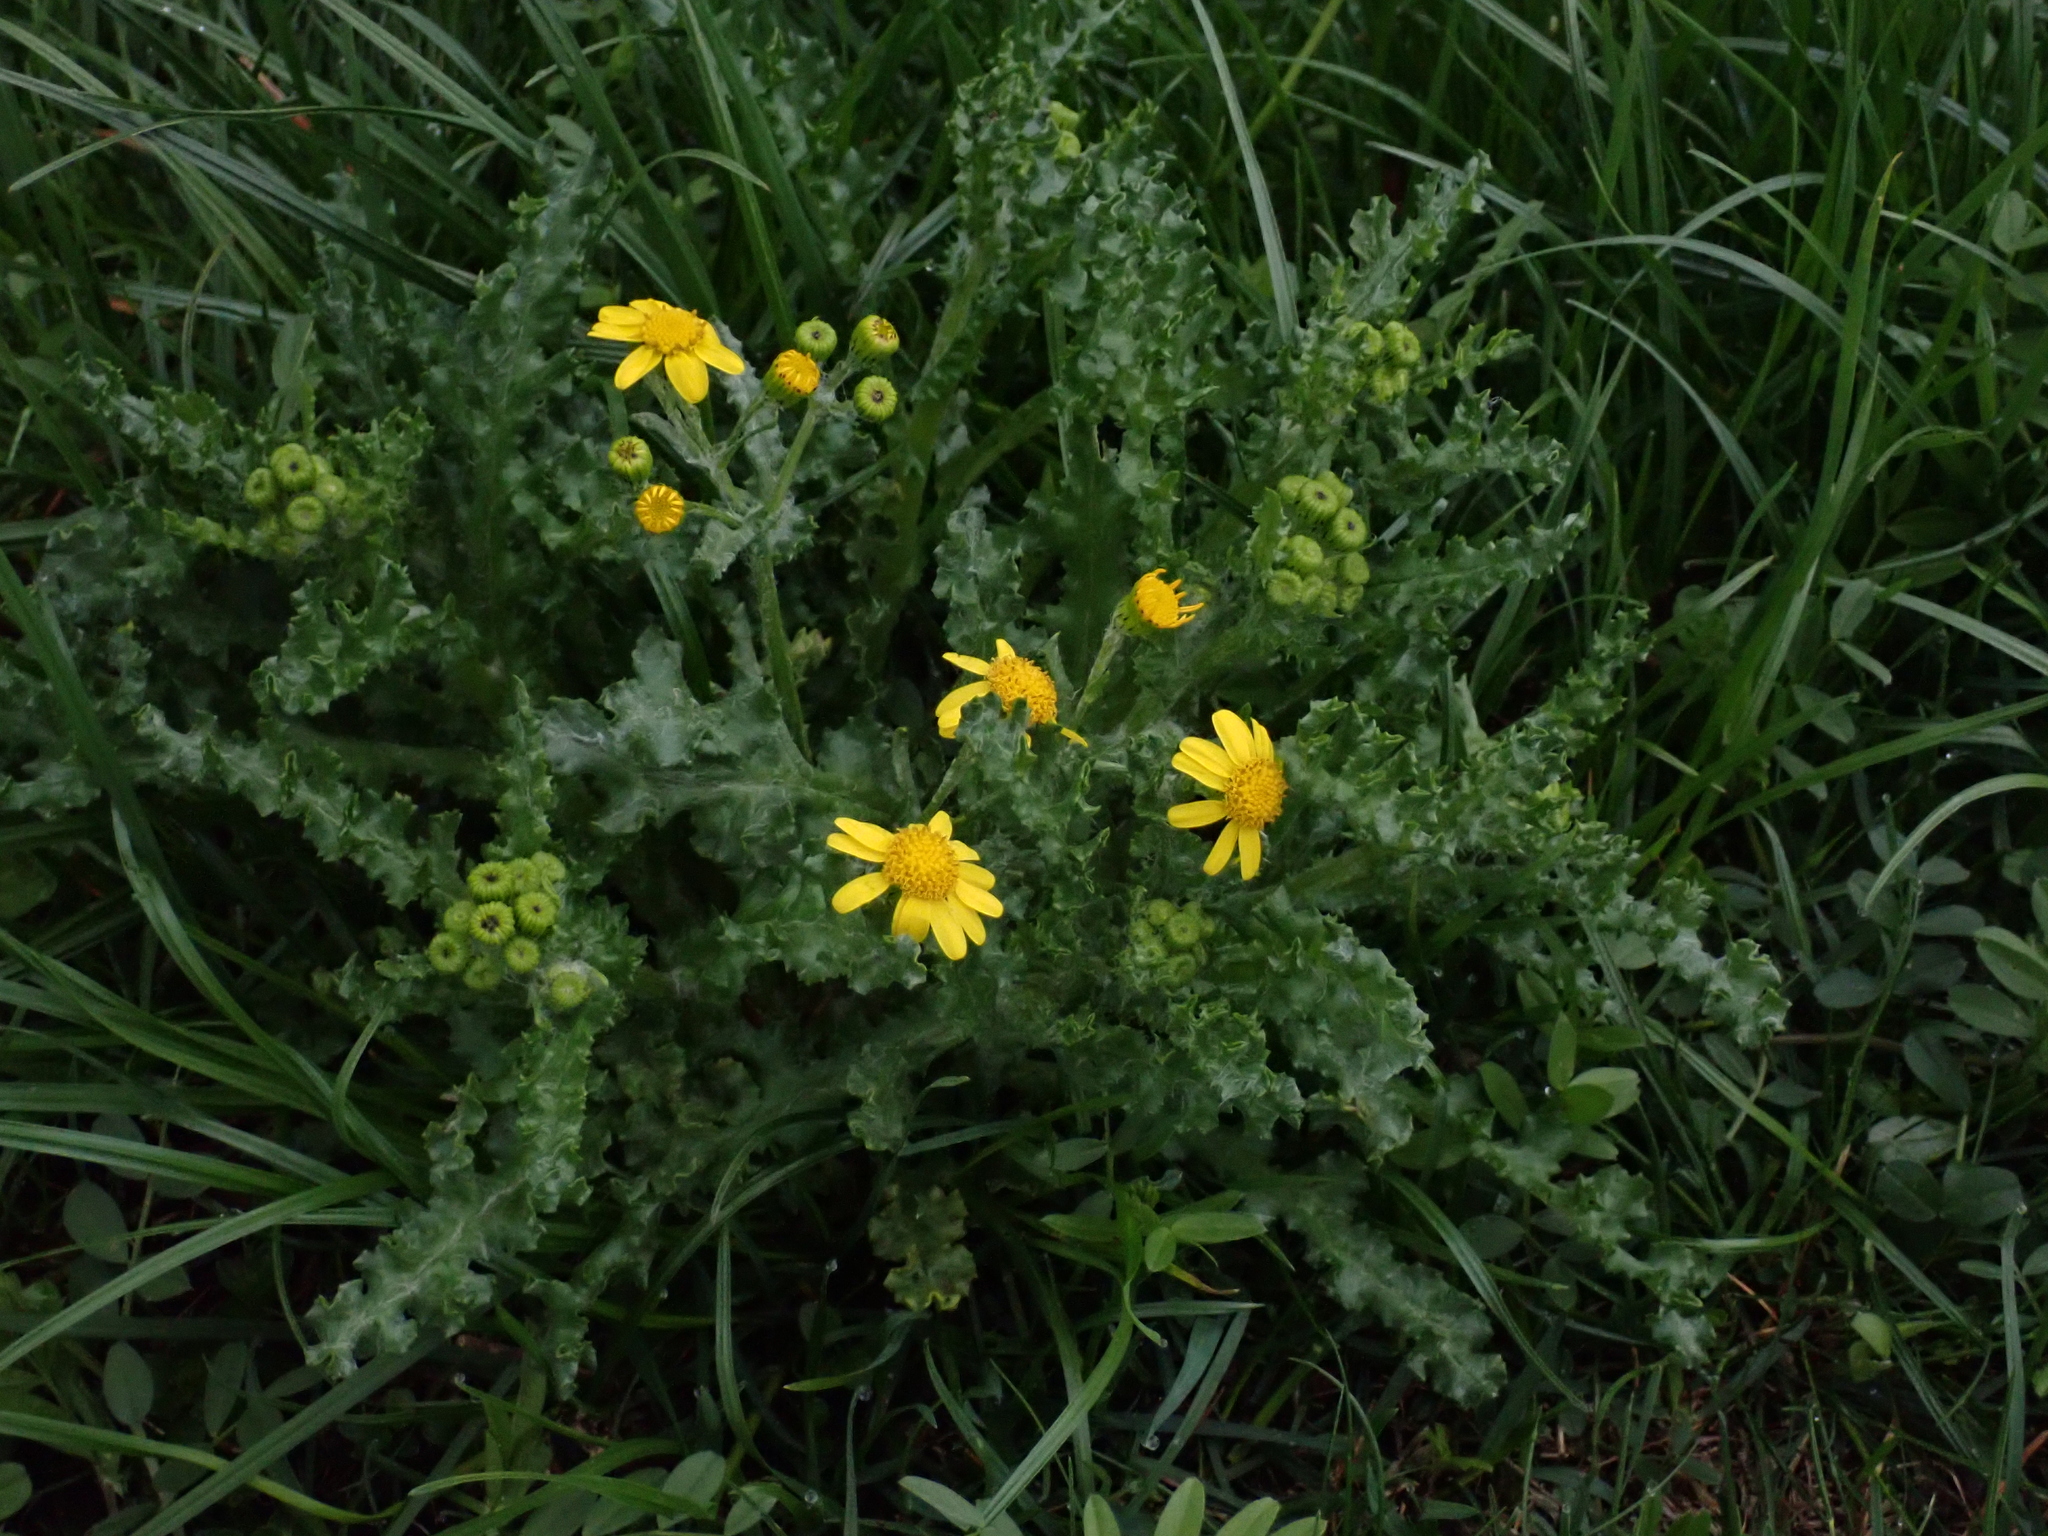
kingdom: Plantae
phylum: Tracheophyta
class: Magnoliopsida
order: Asterales
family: Asteraceae
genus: Senecio
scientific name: Senecio vernalis
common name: Eastern groundsel
